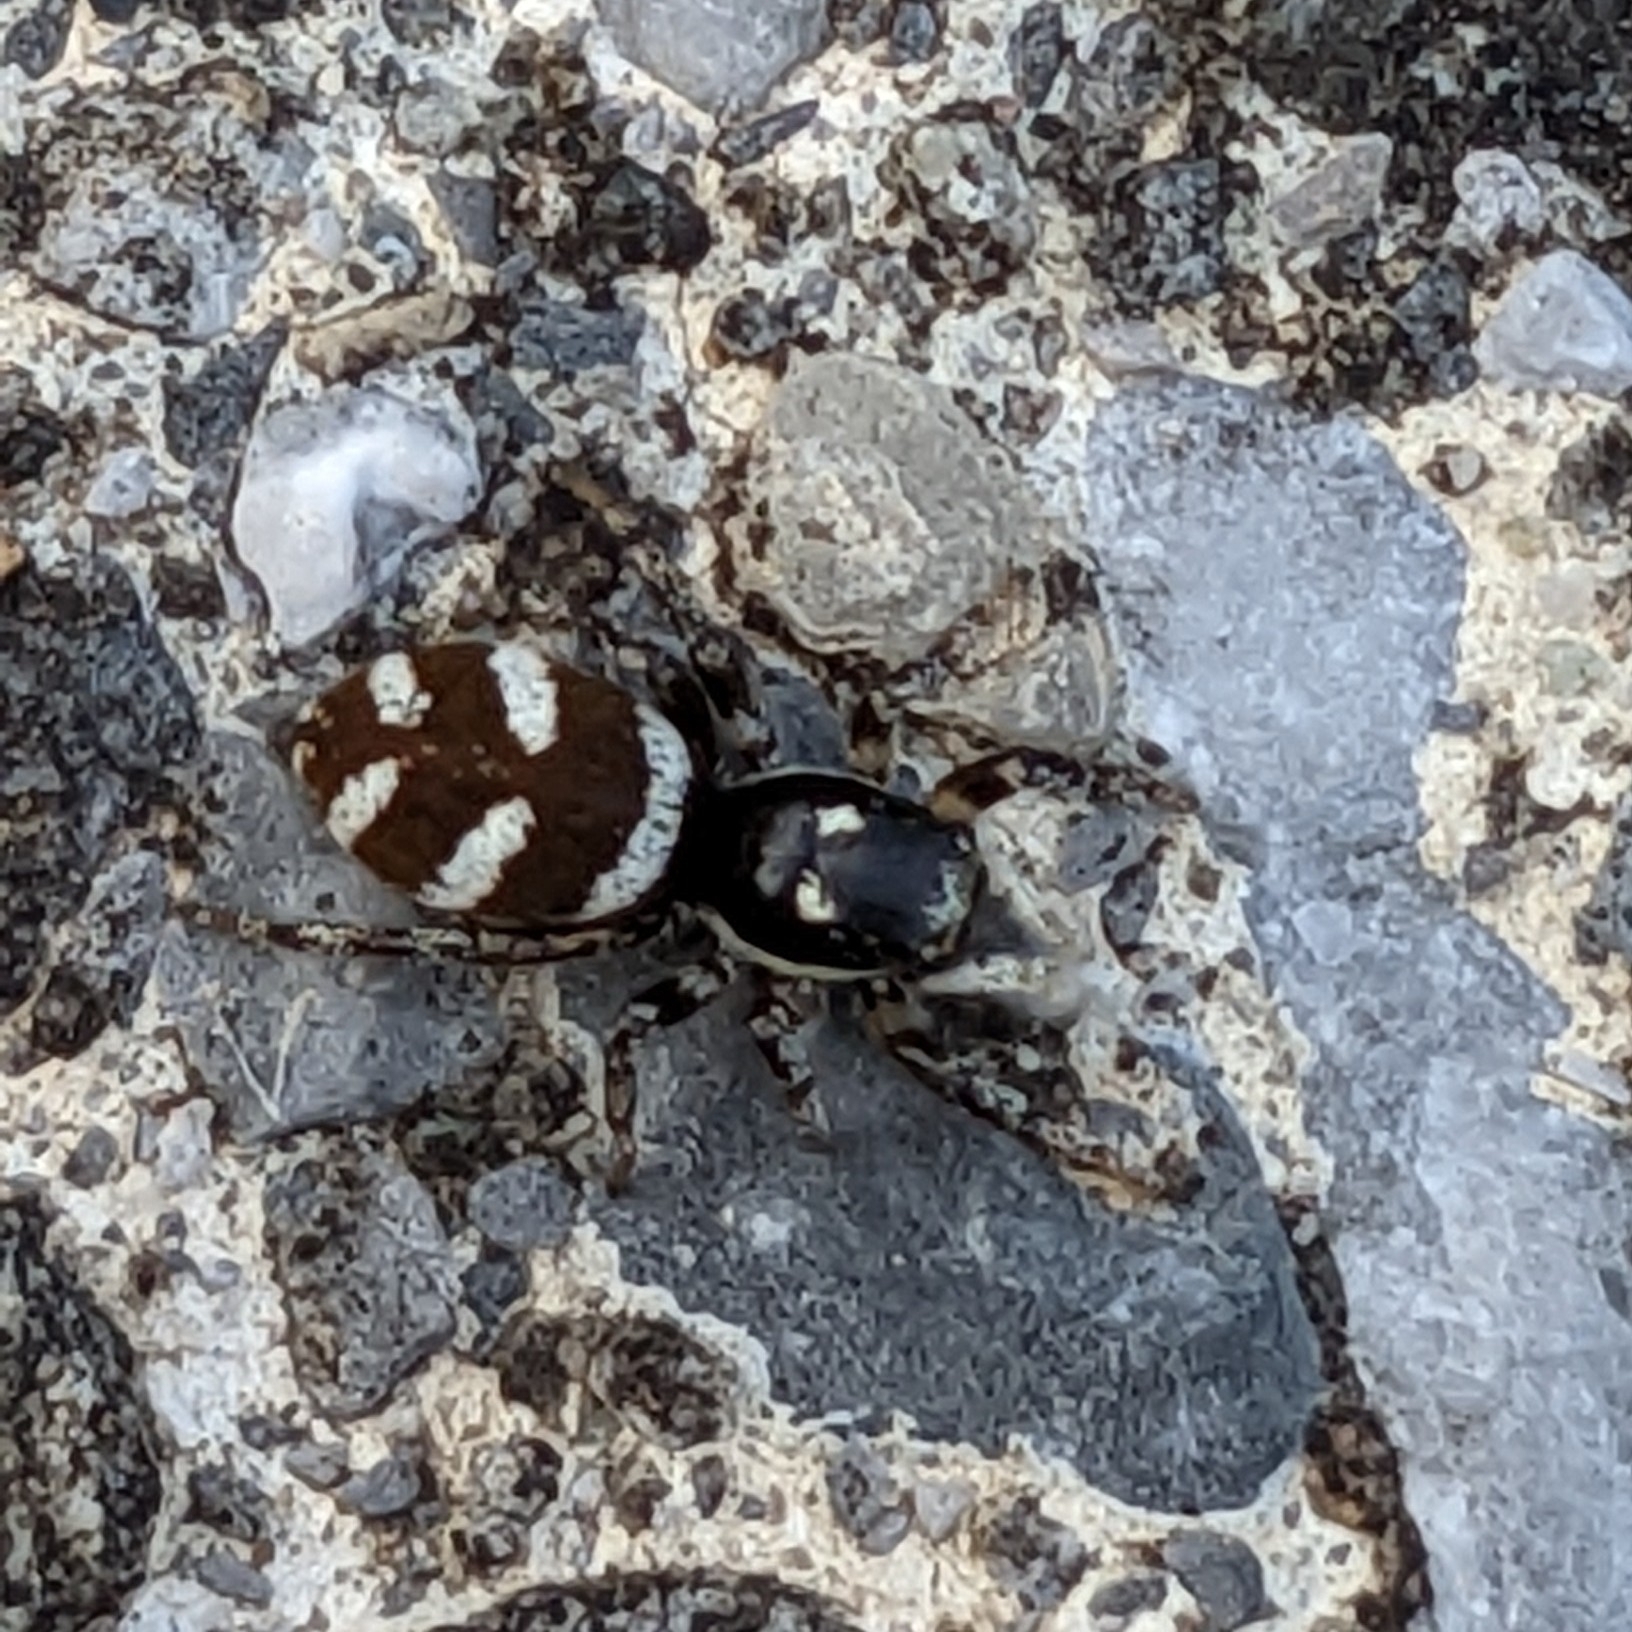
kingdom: Animalia
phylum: Arthropoda
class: Arachnida
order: Araneae
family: Salticidae
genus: Salticus
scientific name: Salticus scenicus
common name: Zebra jumper
